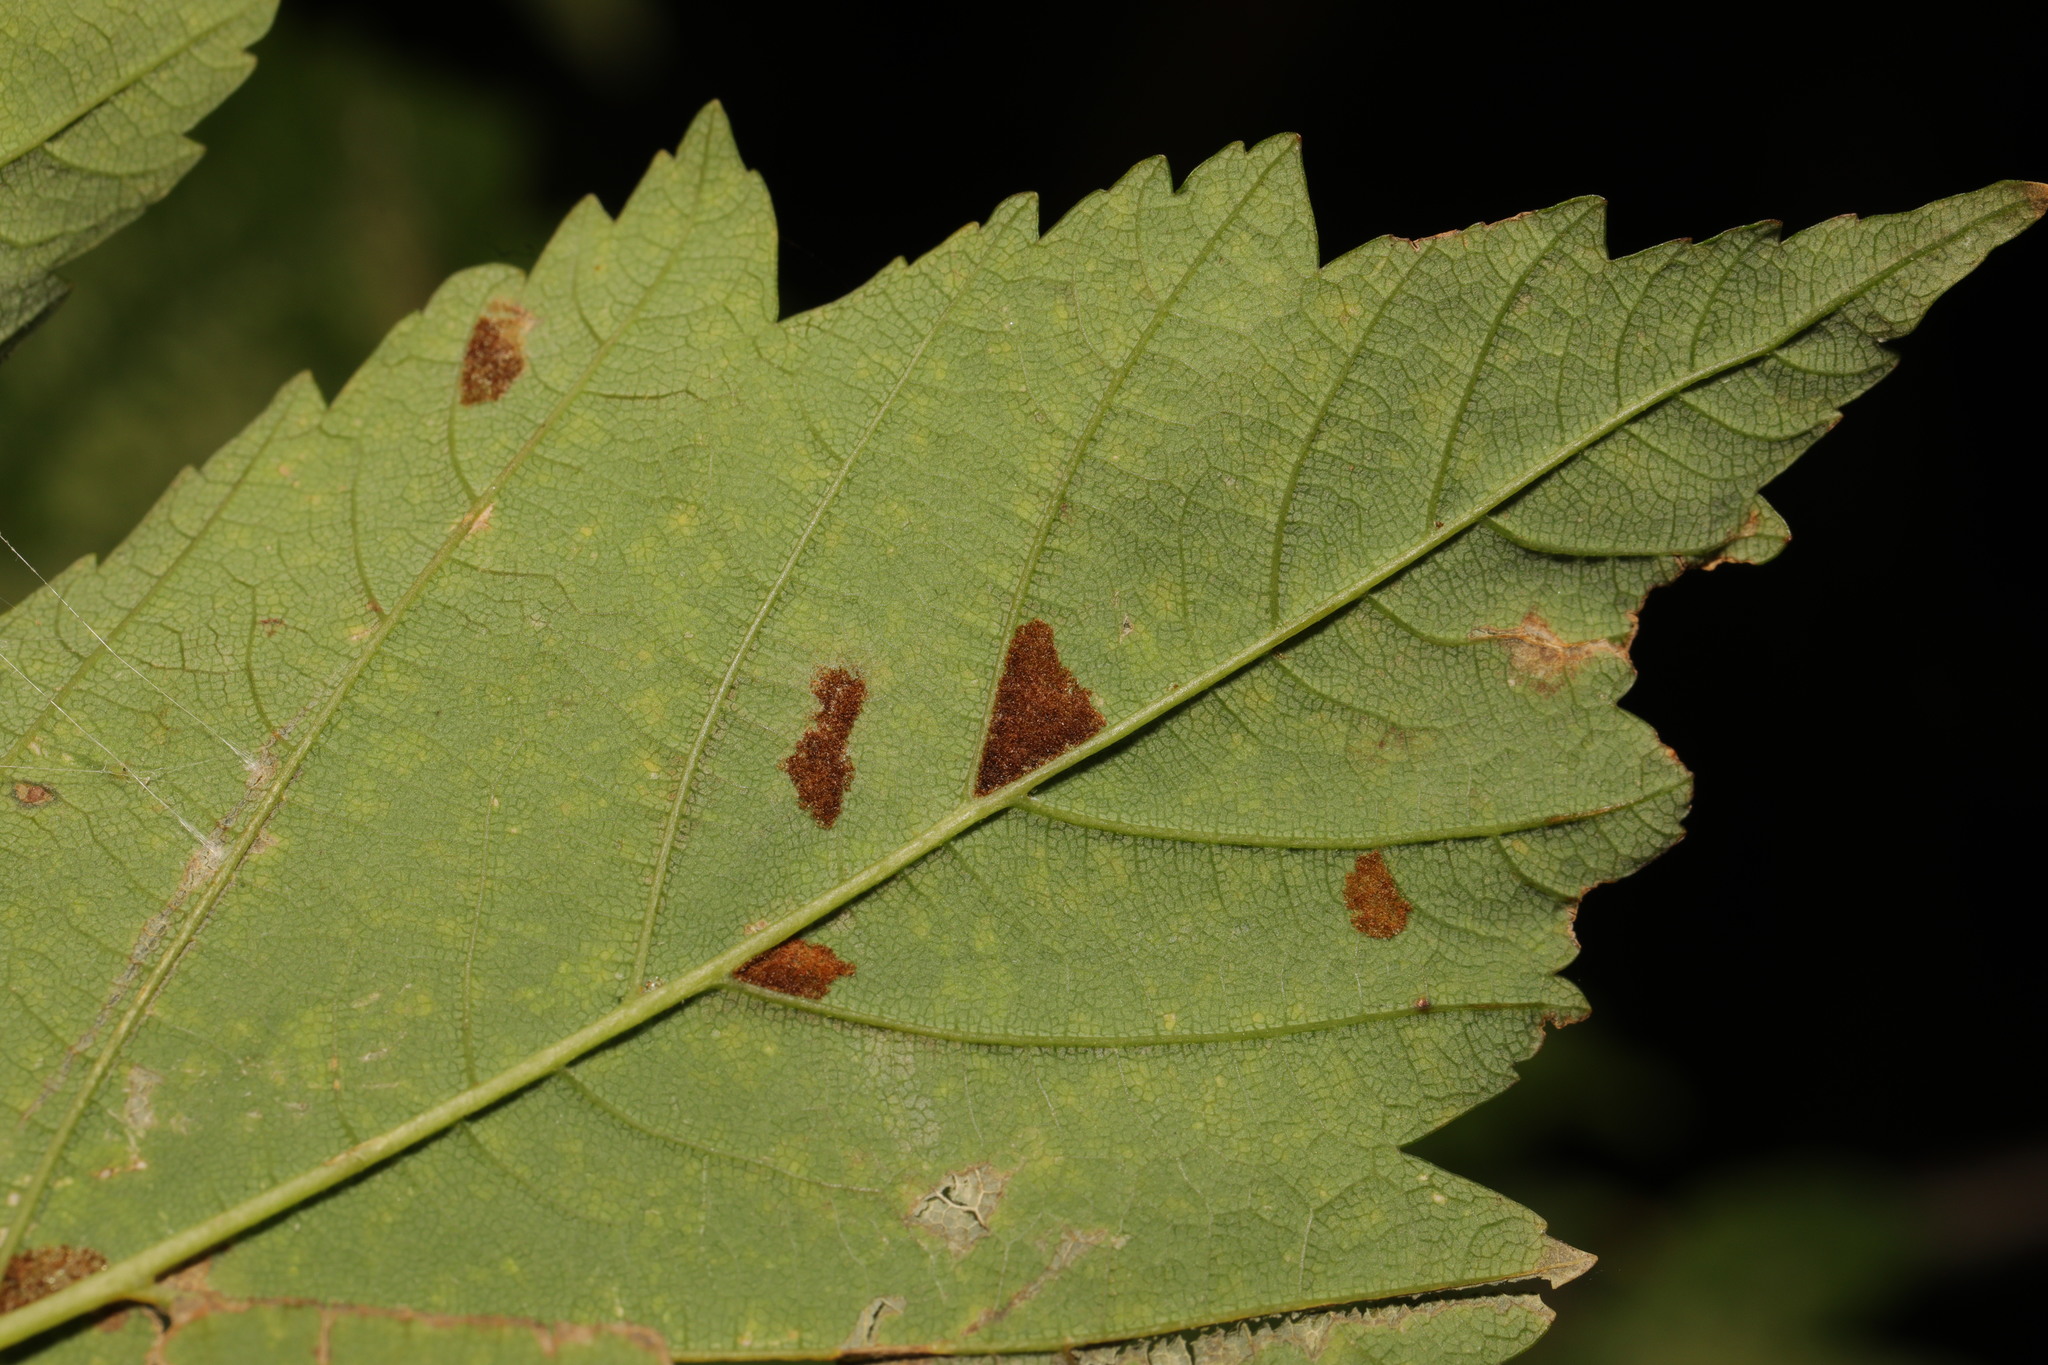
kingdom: Animalia
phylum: Arthropoda
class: Arachnida
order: Trombidiformes
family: Eriophyidae
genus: Aceria
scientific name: Aceria pseudoplatani
